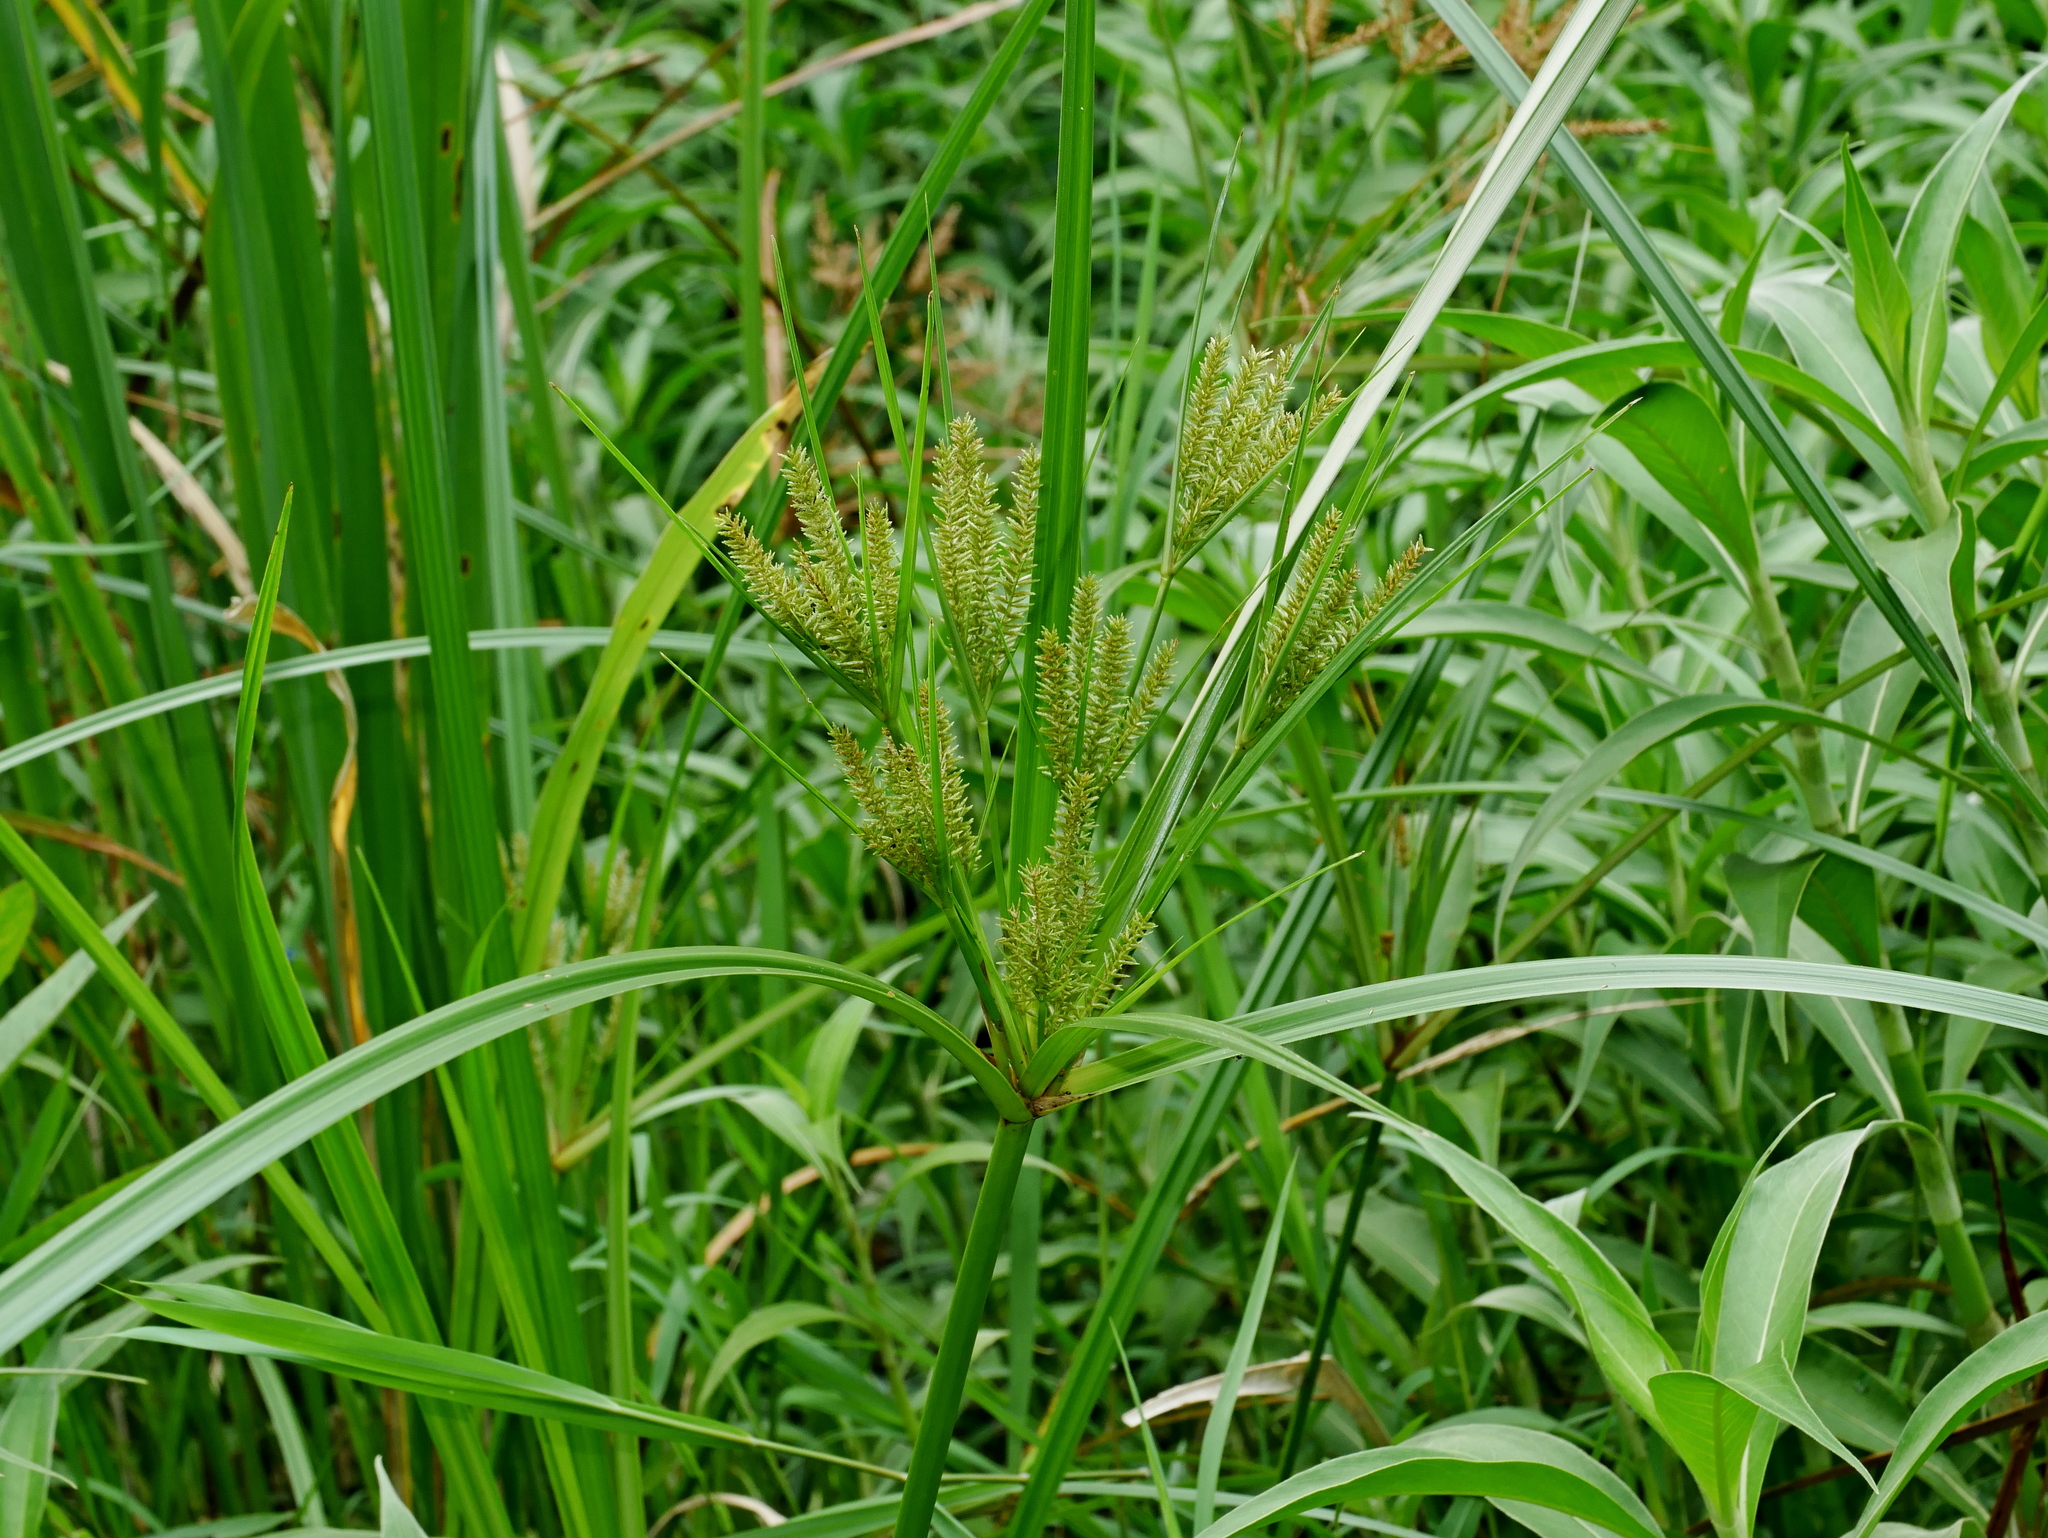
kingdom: Plantae
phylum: Tracheophyta
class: Liliopsida
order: Poales
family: Cyperaceae
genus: Cyperus
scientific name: Cyperus exaltatus
